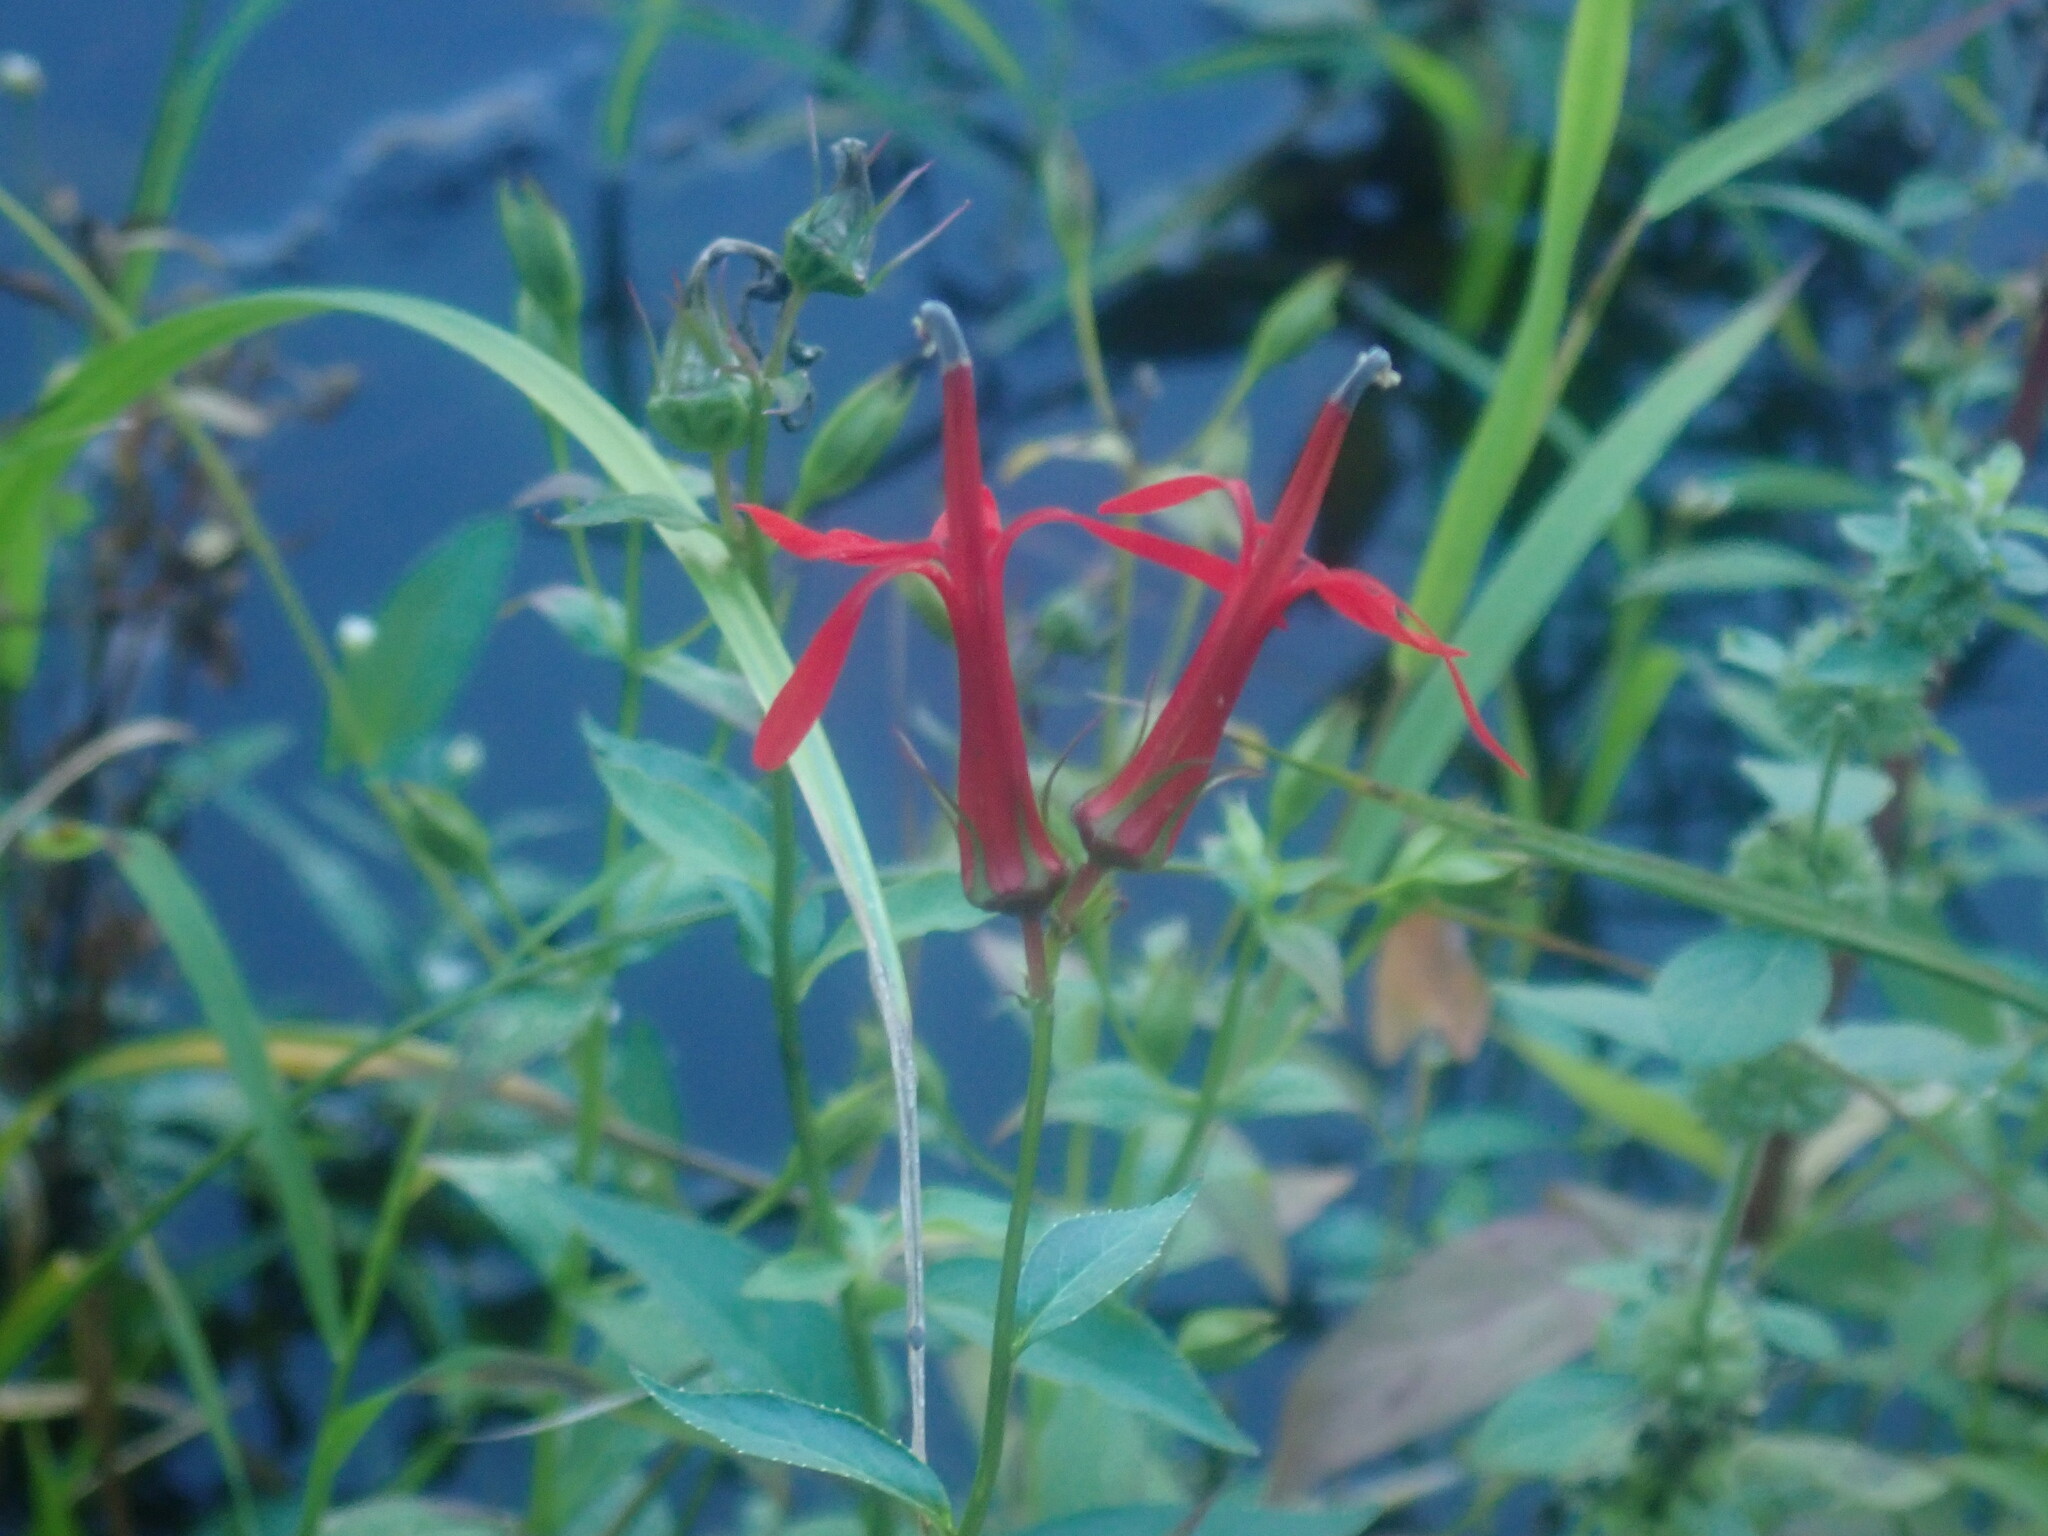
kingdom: Plantae
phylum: Tracheophyta
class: Magnoliopsida
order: Asterales
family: Campanulaceae
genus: Lobelia
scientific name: Lobelia cardinalis
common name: Cardinal flower
